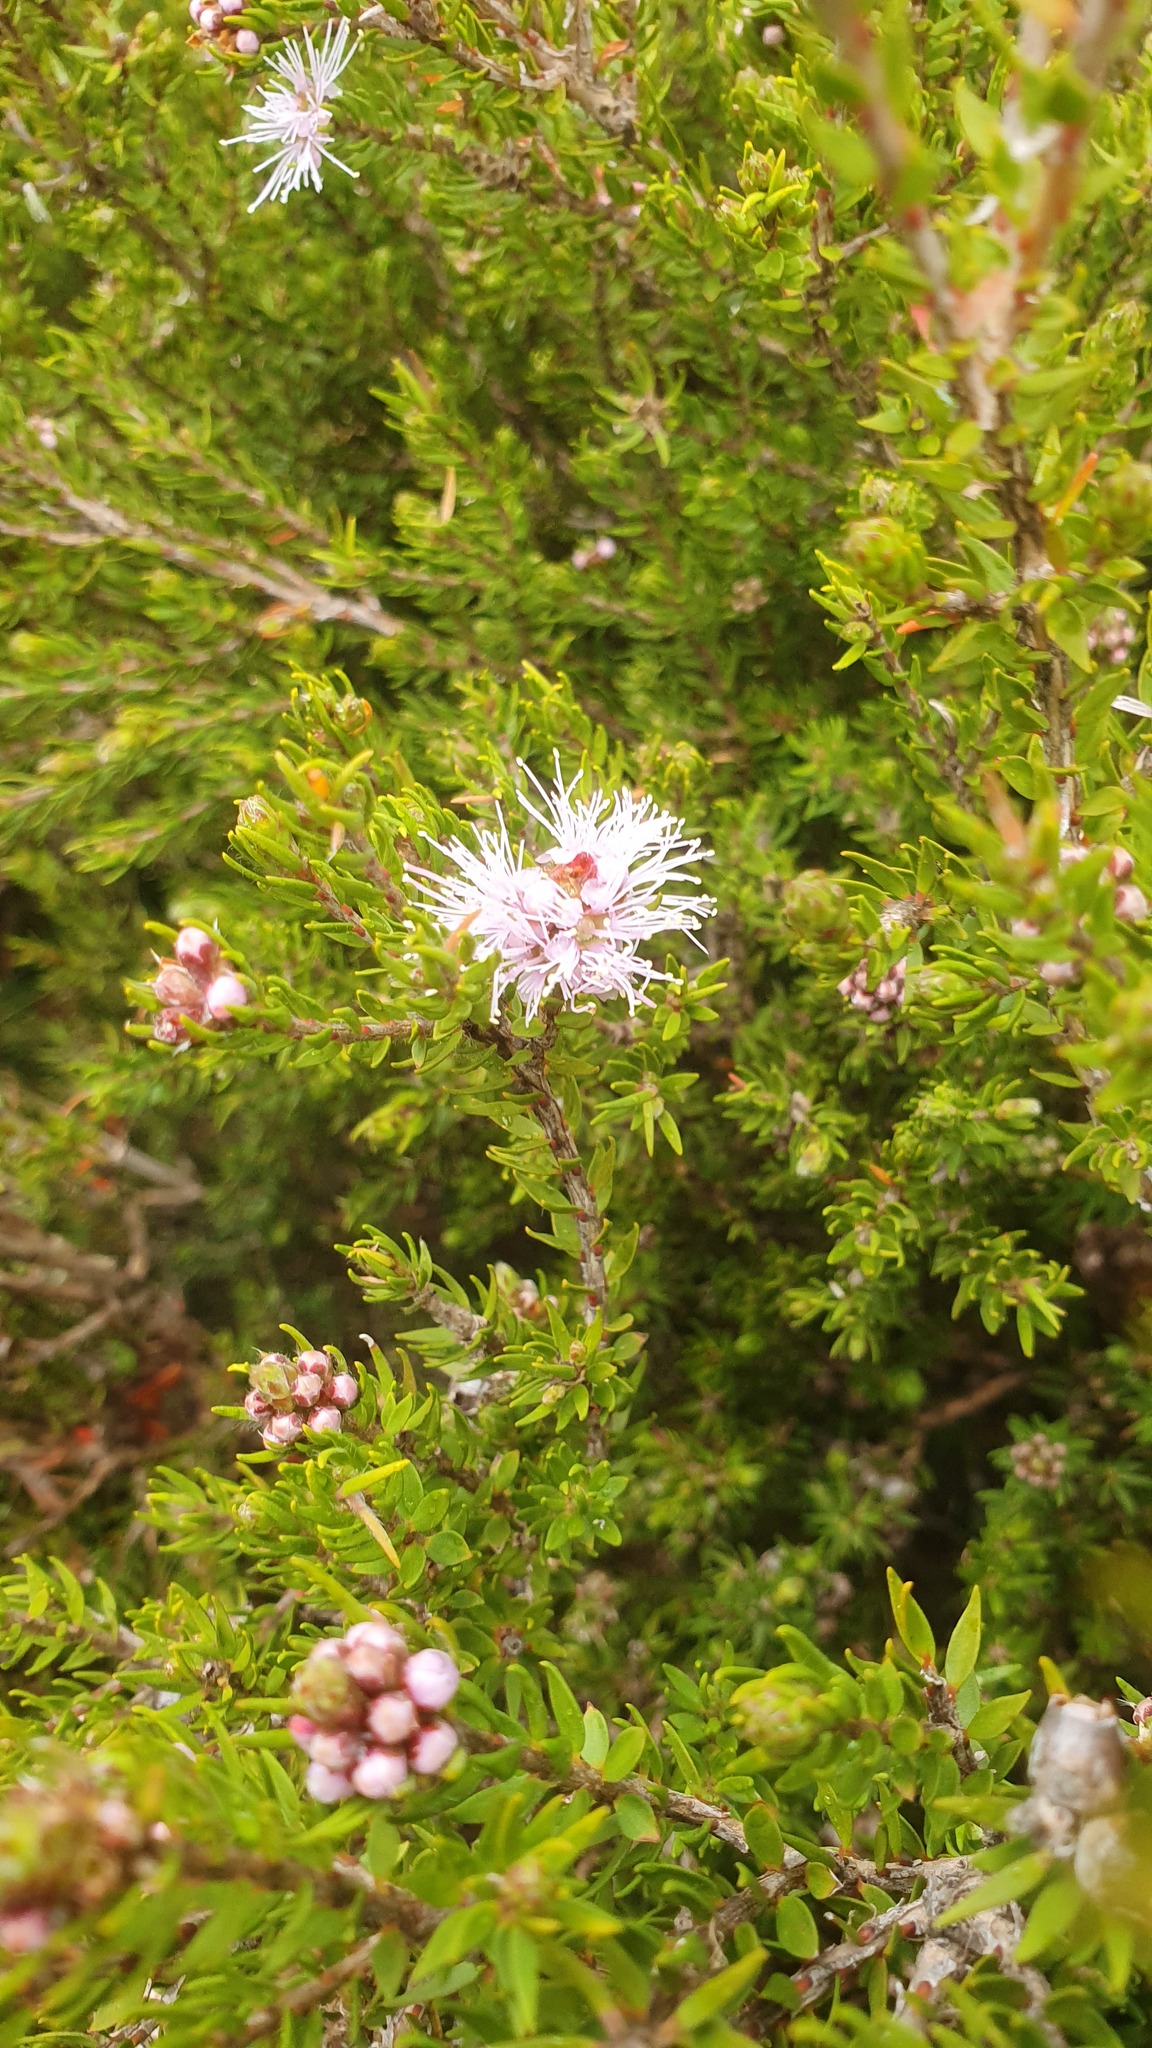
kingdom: Plantae
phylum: Tracheophyta
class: Magnoliopsida
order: Myrtales
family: Myrtaceae
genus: Melaleuca
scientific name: Melaleuca squamea
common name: Swamp melaleuca
